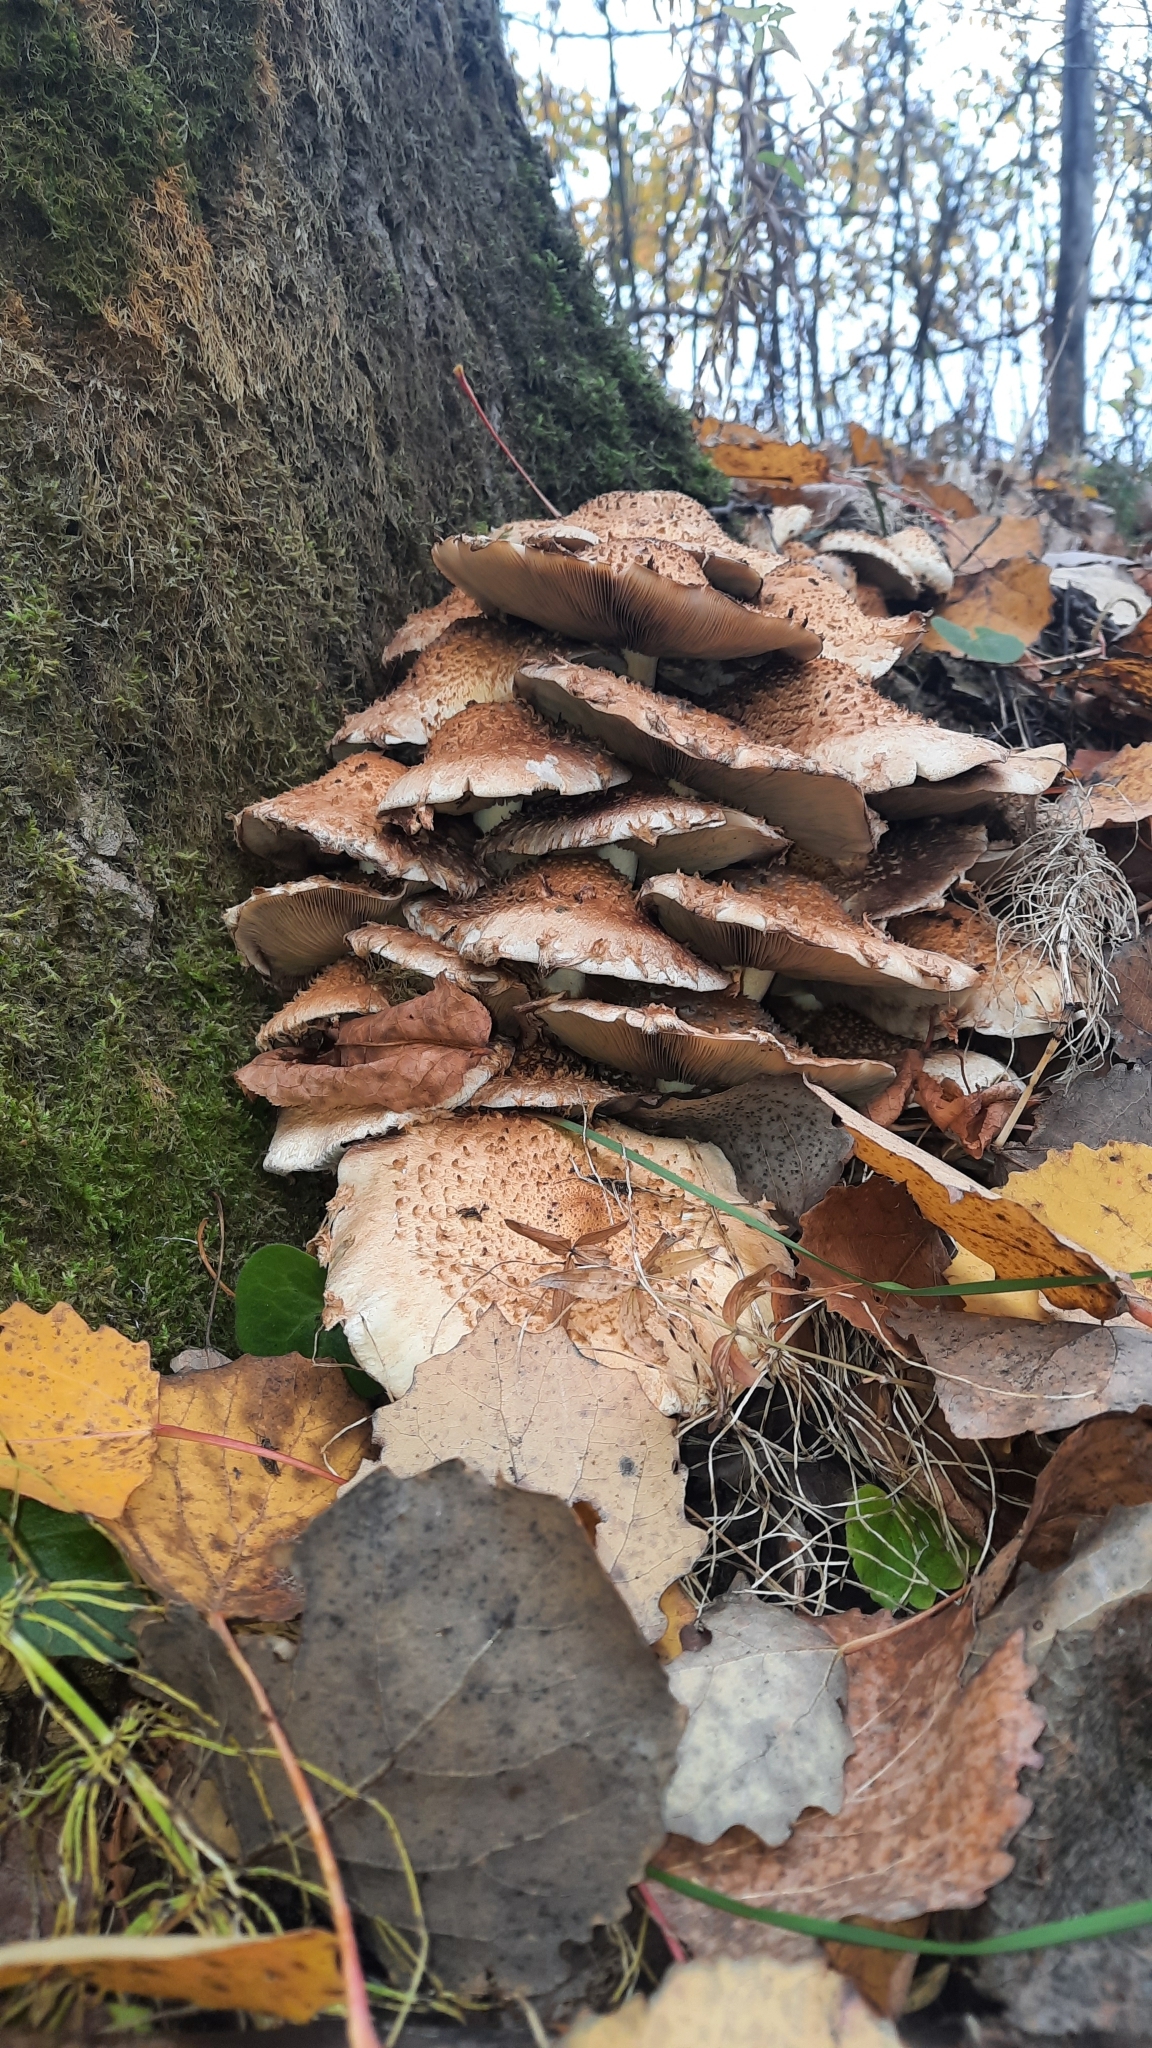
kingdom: Fungi
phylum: Basidiomycota
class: Agaricomycetes
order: Agaricales
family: Strophariaceae
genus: Pholiota
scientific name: Pholiota squarrosa
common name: Shaggy pholiota
